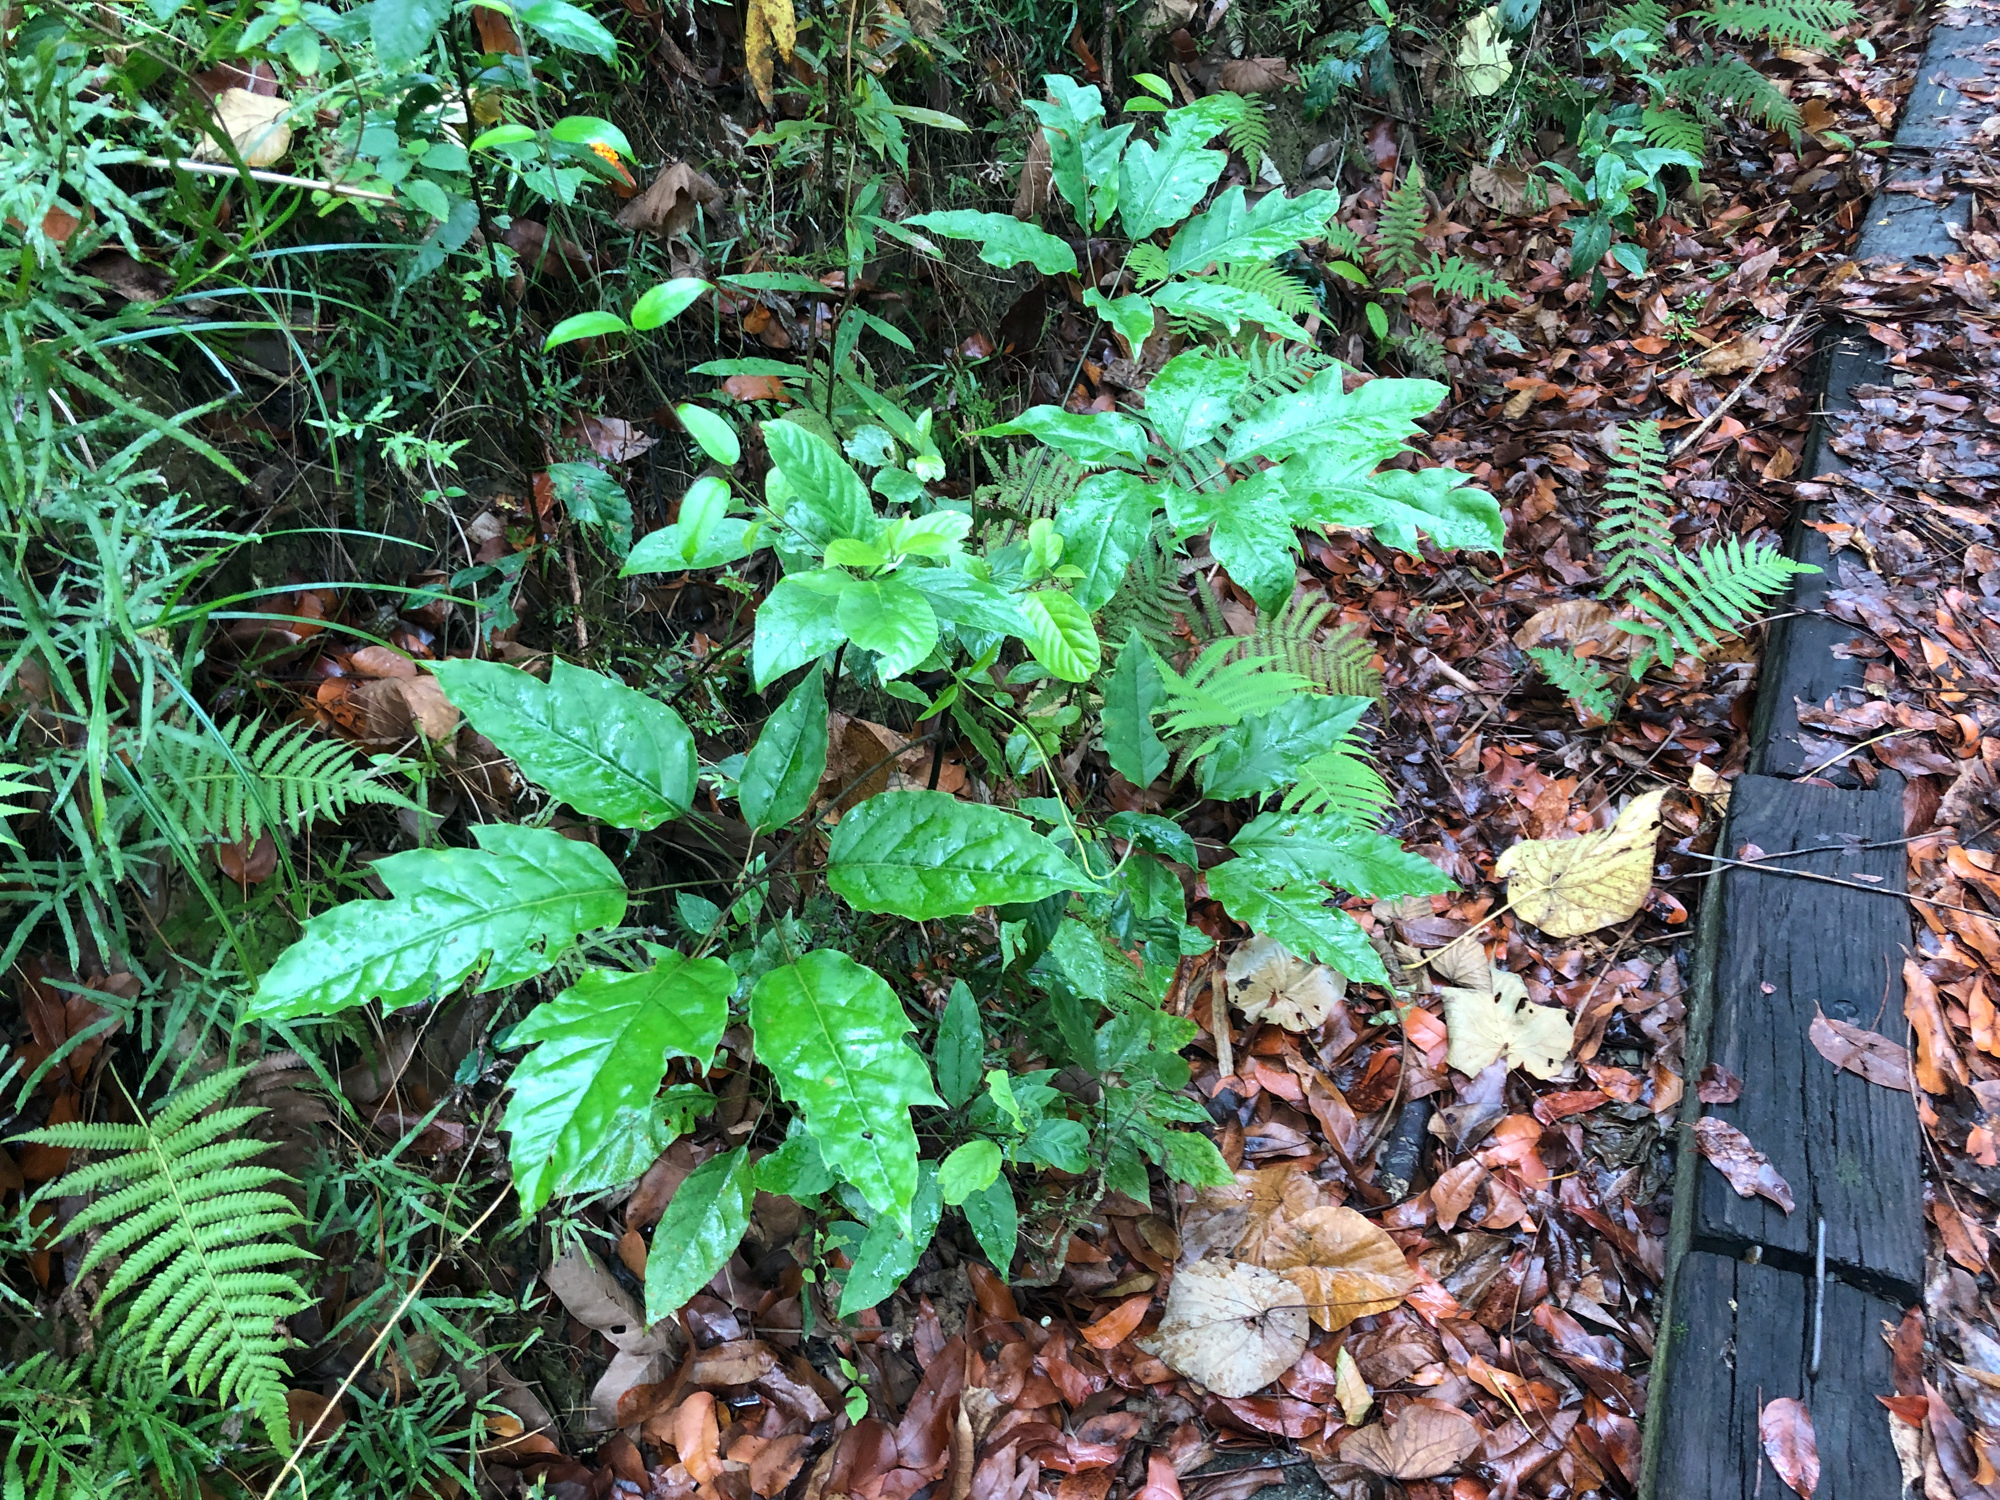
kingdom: Plantae
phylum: Tracheophyta
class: Magnoliopsida
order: Apiales
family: Araliaceae
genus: Heptapleurum
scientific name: Heptapleurum heptaphyllum
